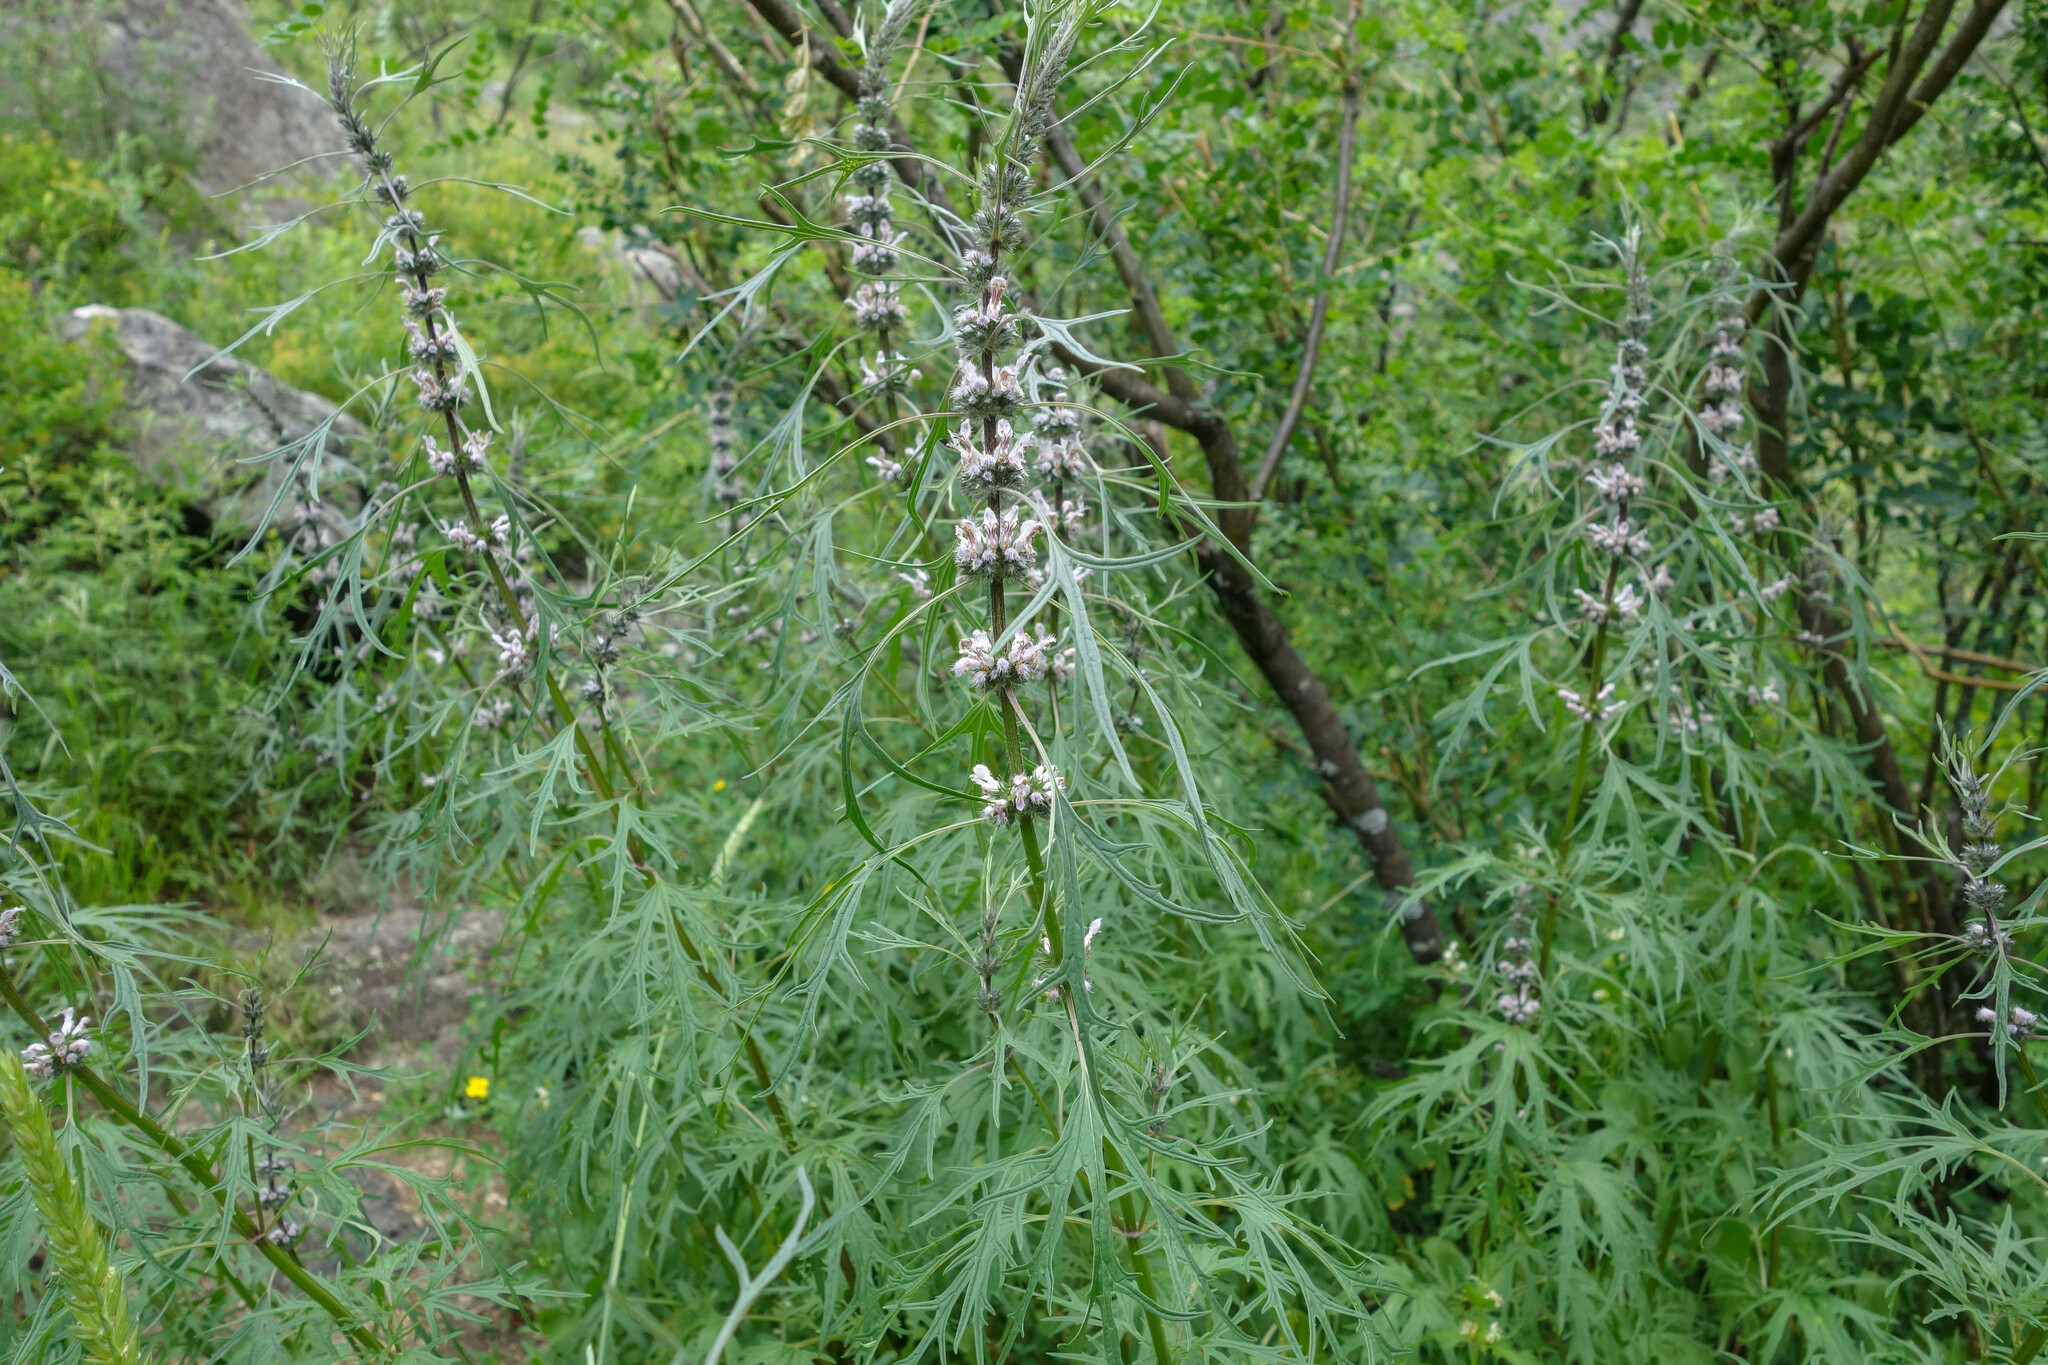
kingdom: Plantae
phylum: Tracheophyta
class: Magnoliopsida
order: Lamiales
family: Lamiaceae
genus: Leonurus
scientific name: Leonurus tataricus
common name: Chinese motherwort
